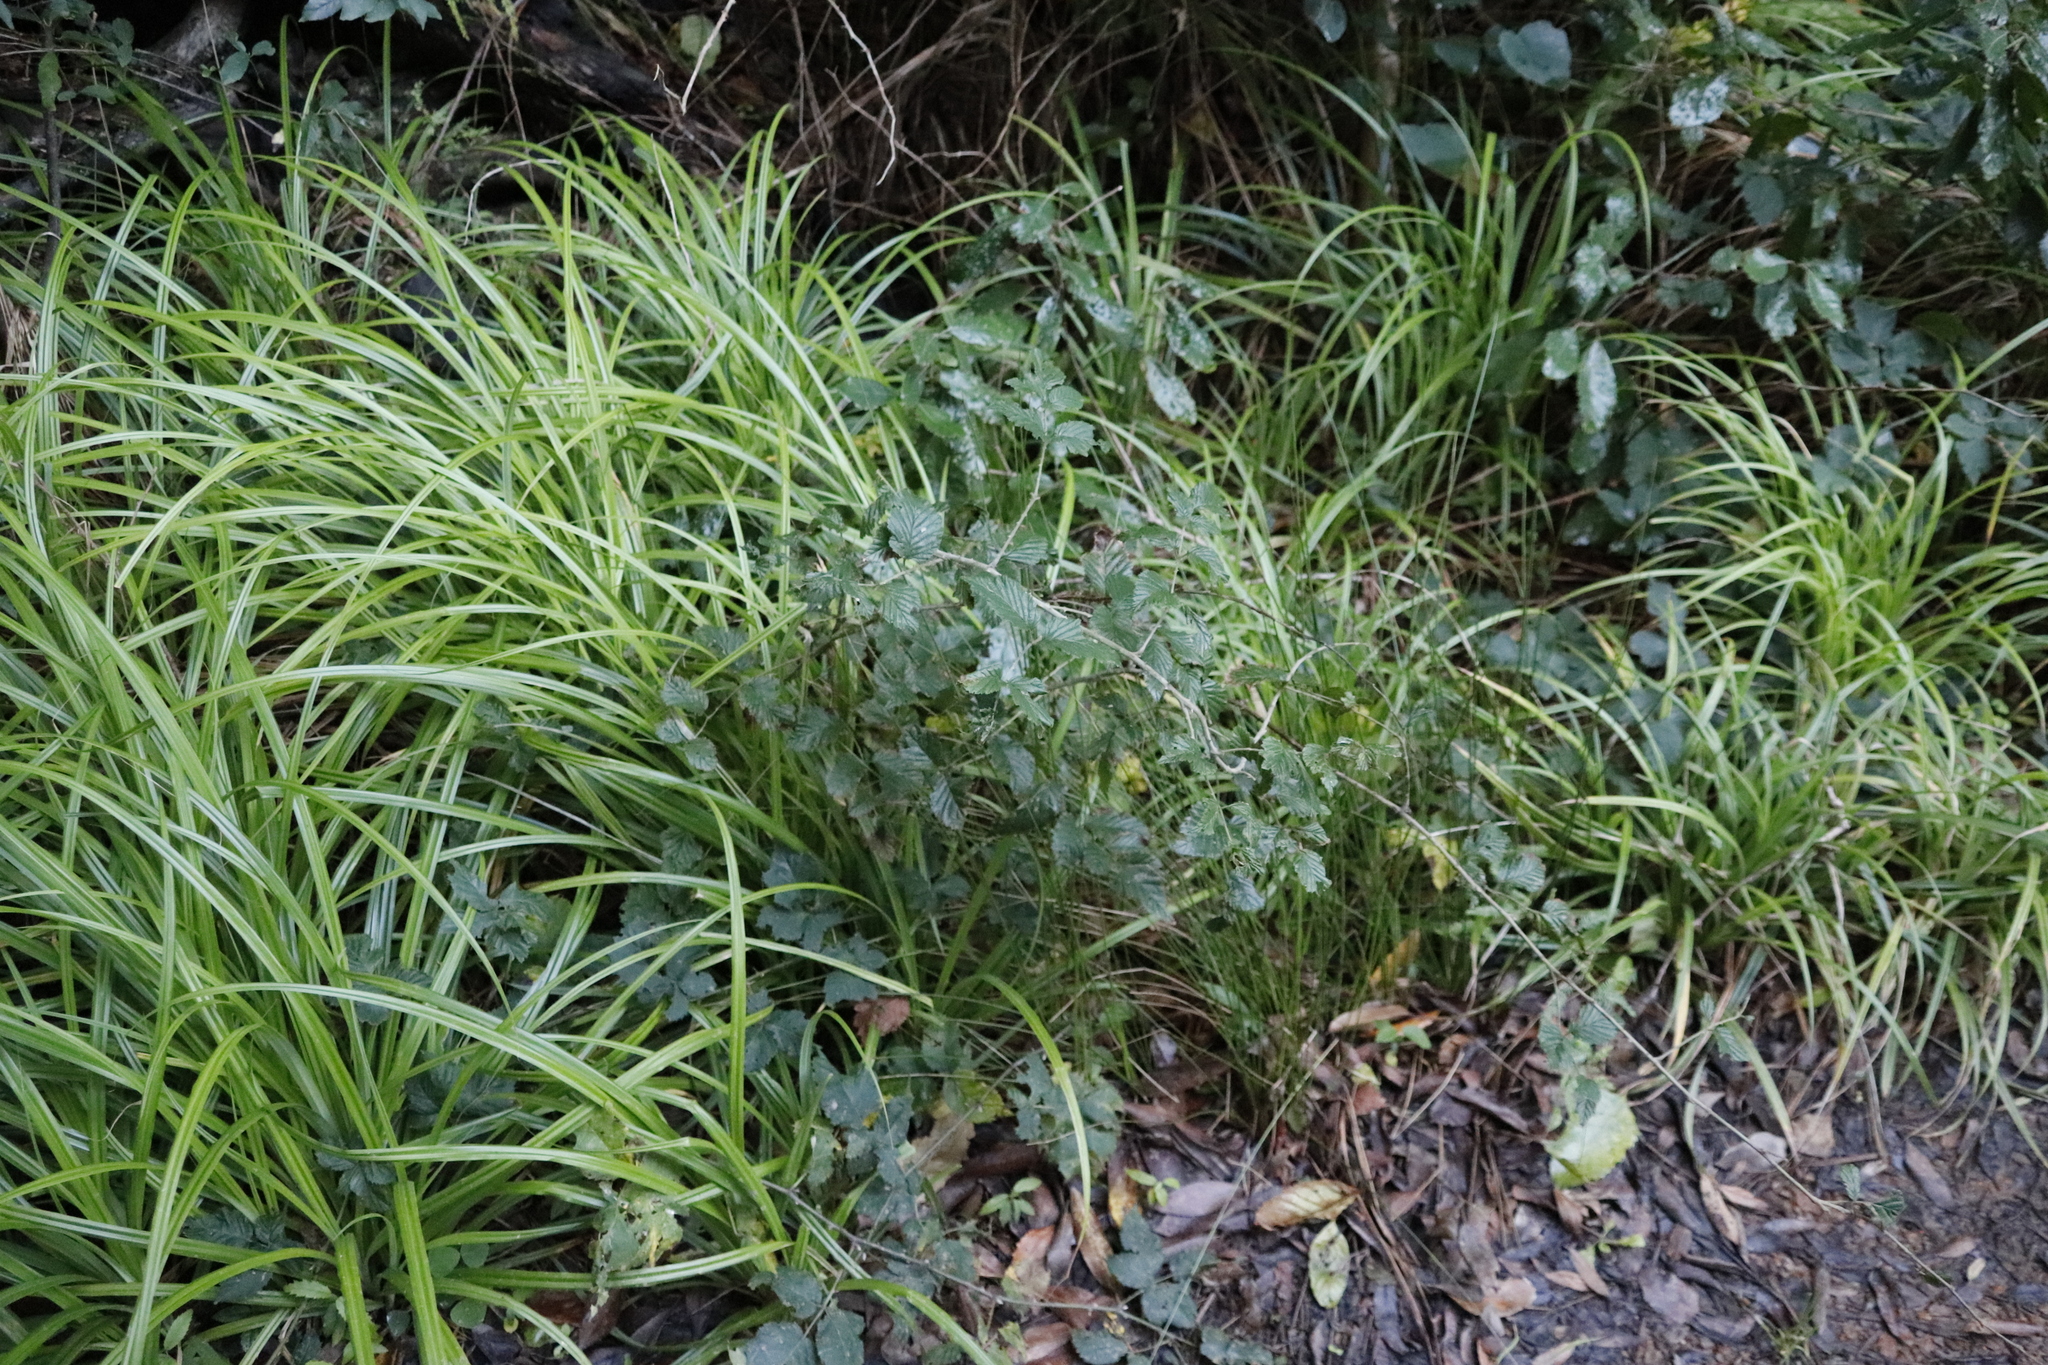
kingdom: Plantae
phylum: Tracheophyta
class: Magnoliopsida
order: Rosales
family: Rosaceae
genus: Rubus
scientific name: Rubus pinnatus
